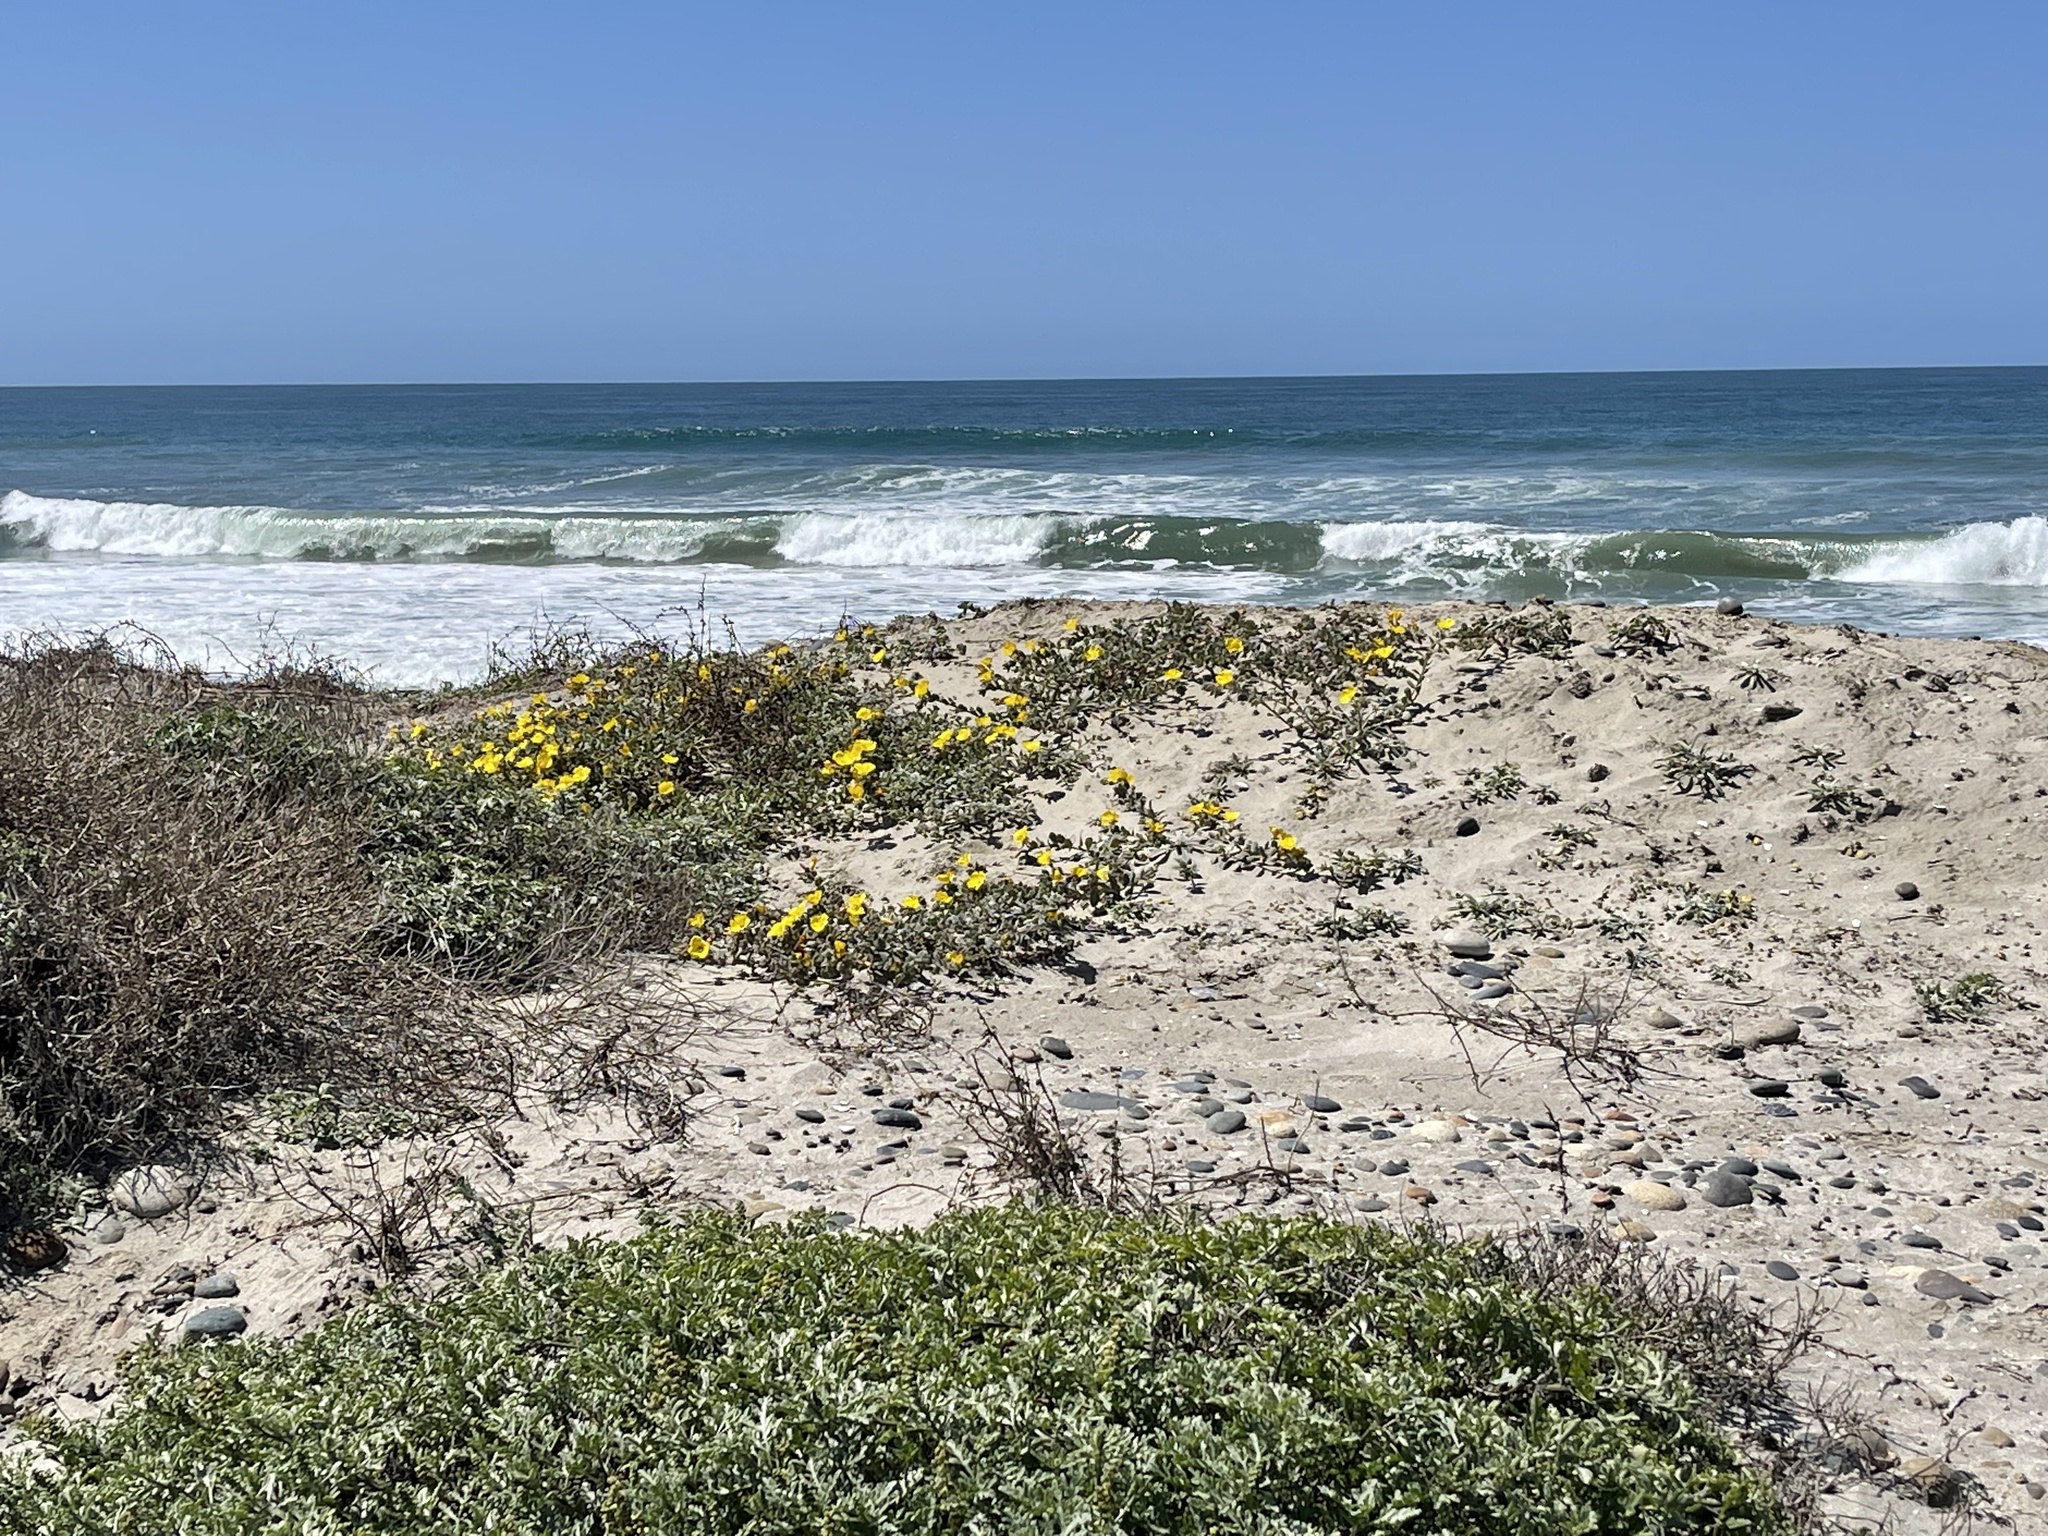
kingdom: Plantae
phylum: Tracheophyta
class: Magnoliopsida
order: Myrtales
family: Onagraceae
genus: Camissoniopsis
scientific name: Camissoniopsis cheiranthifolia
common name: Beach suncup
